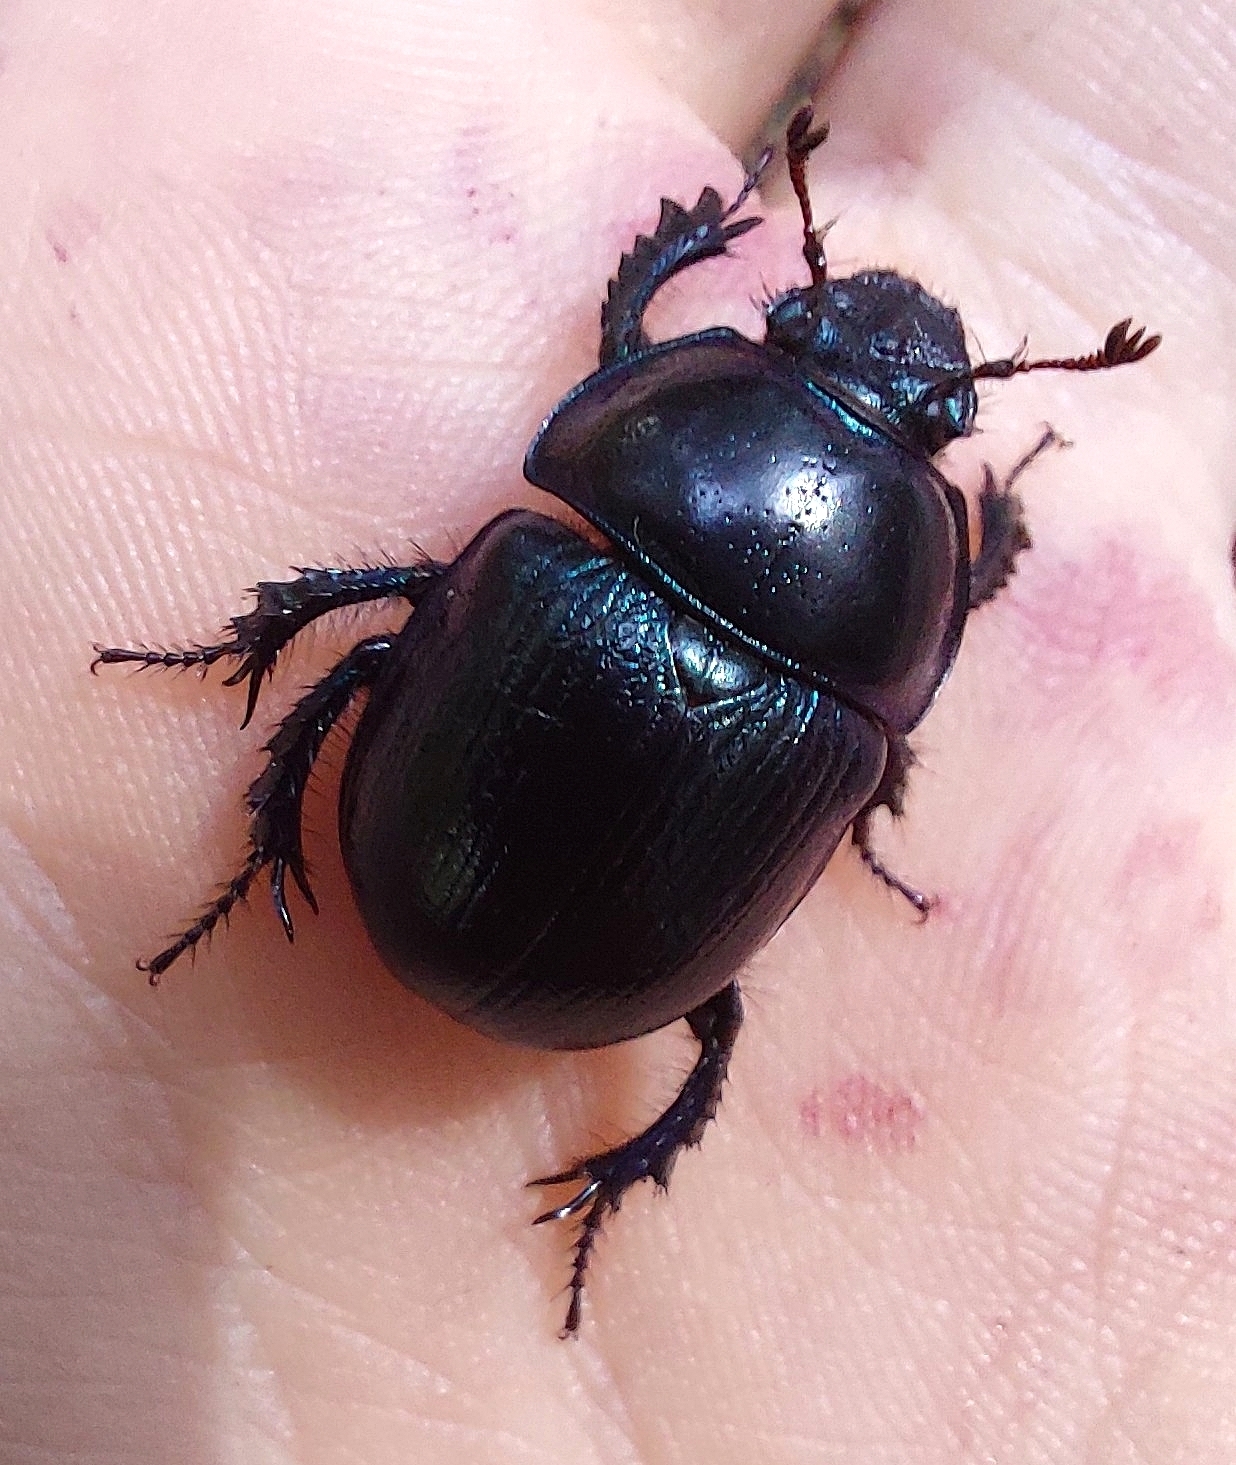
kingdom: Animalia
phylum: Arthropoda
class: Insecta
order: Coleoptera
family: Geotrupidae
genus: Anoplotrupes
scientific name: Anoplotrupes stercorosus
